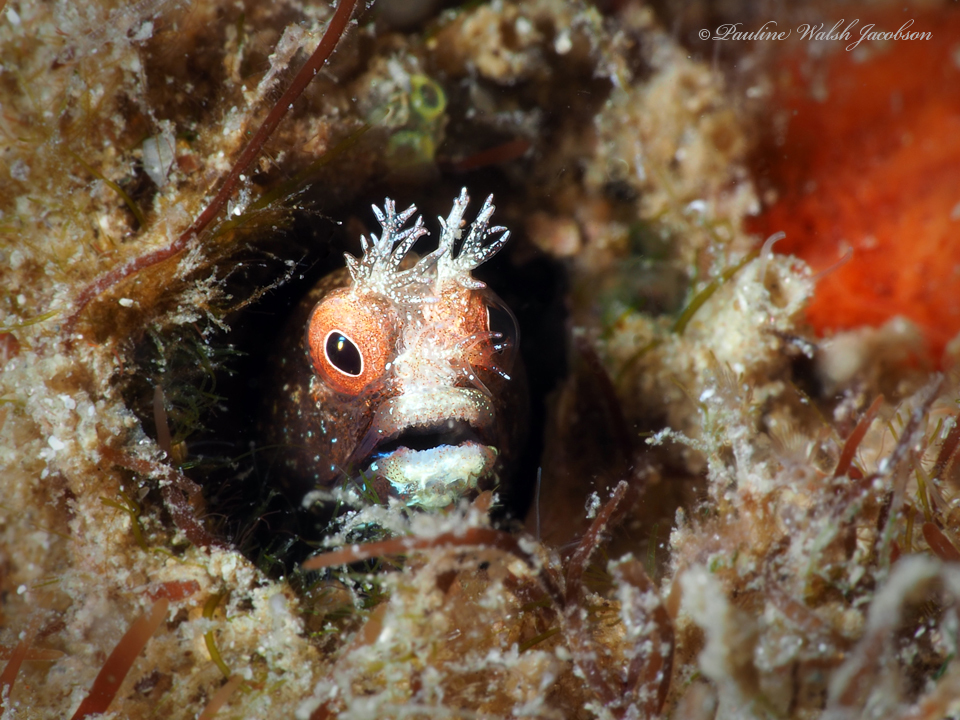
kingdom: Animalia
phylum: Chordata
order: Perciformes
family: Chaenopsidae
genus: Acanthemblemaria
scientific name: Acanthemblemaria aspera
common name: Roughhead blenny
